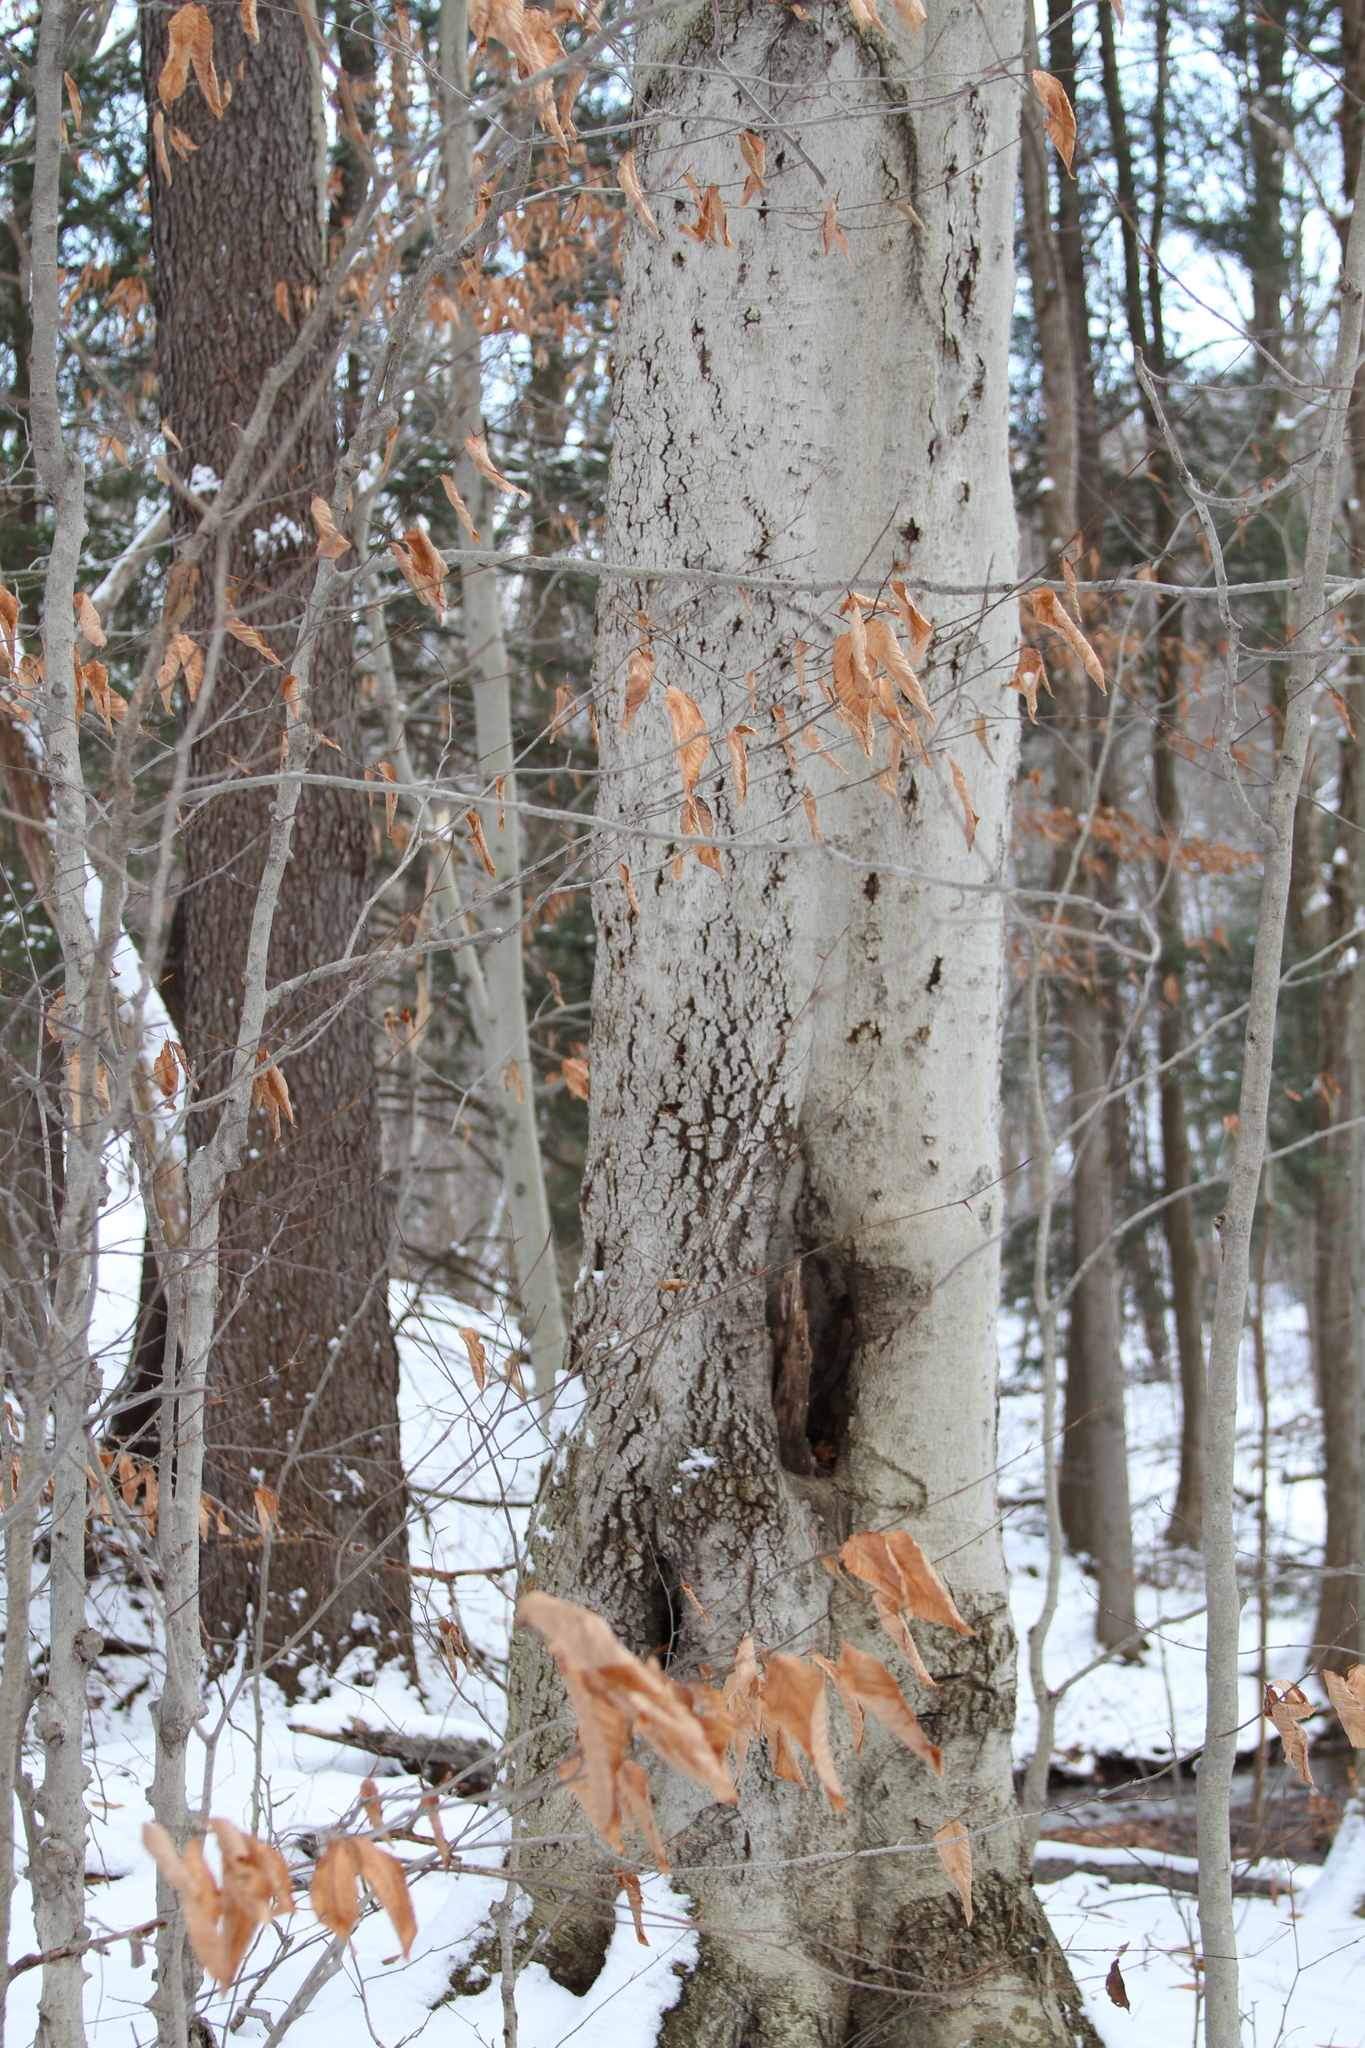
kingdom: Plantae
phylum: Tracheophyta
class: Magnoliopsida
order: Fagales
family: Fagaceae
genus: Fagus
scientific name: Fagus grandifolia
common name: American beech
